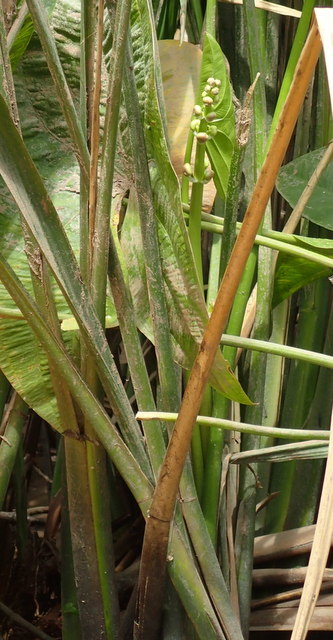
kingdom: Plantae
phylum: Tracheophyta
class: Liliopsida
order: Alismatales
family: Alismataceae
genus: Sagittaria
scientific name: Sagittaria latifolia
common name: Duck-potato
